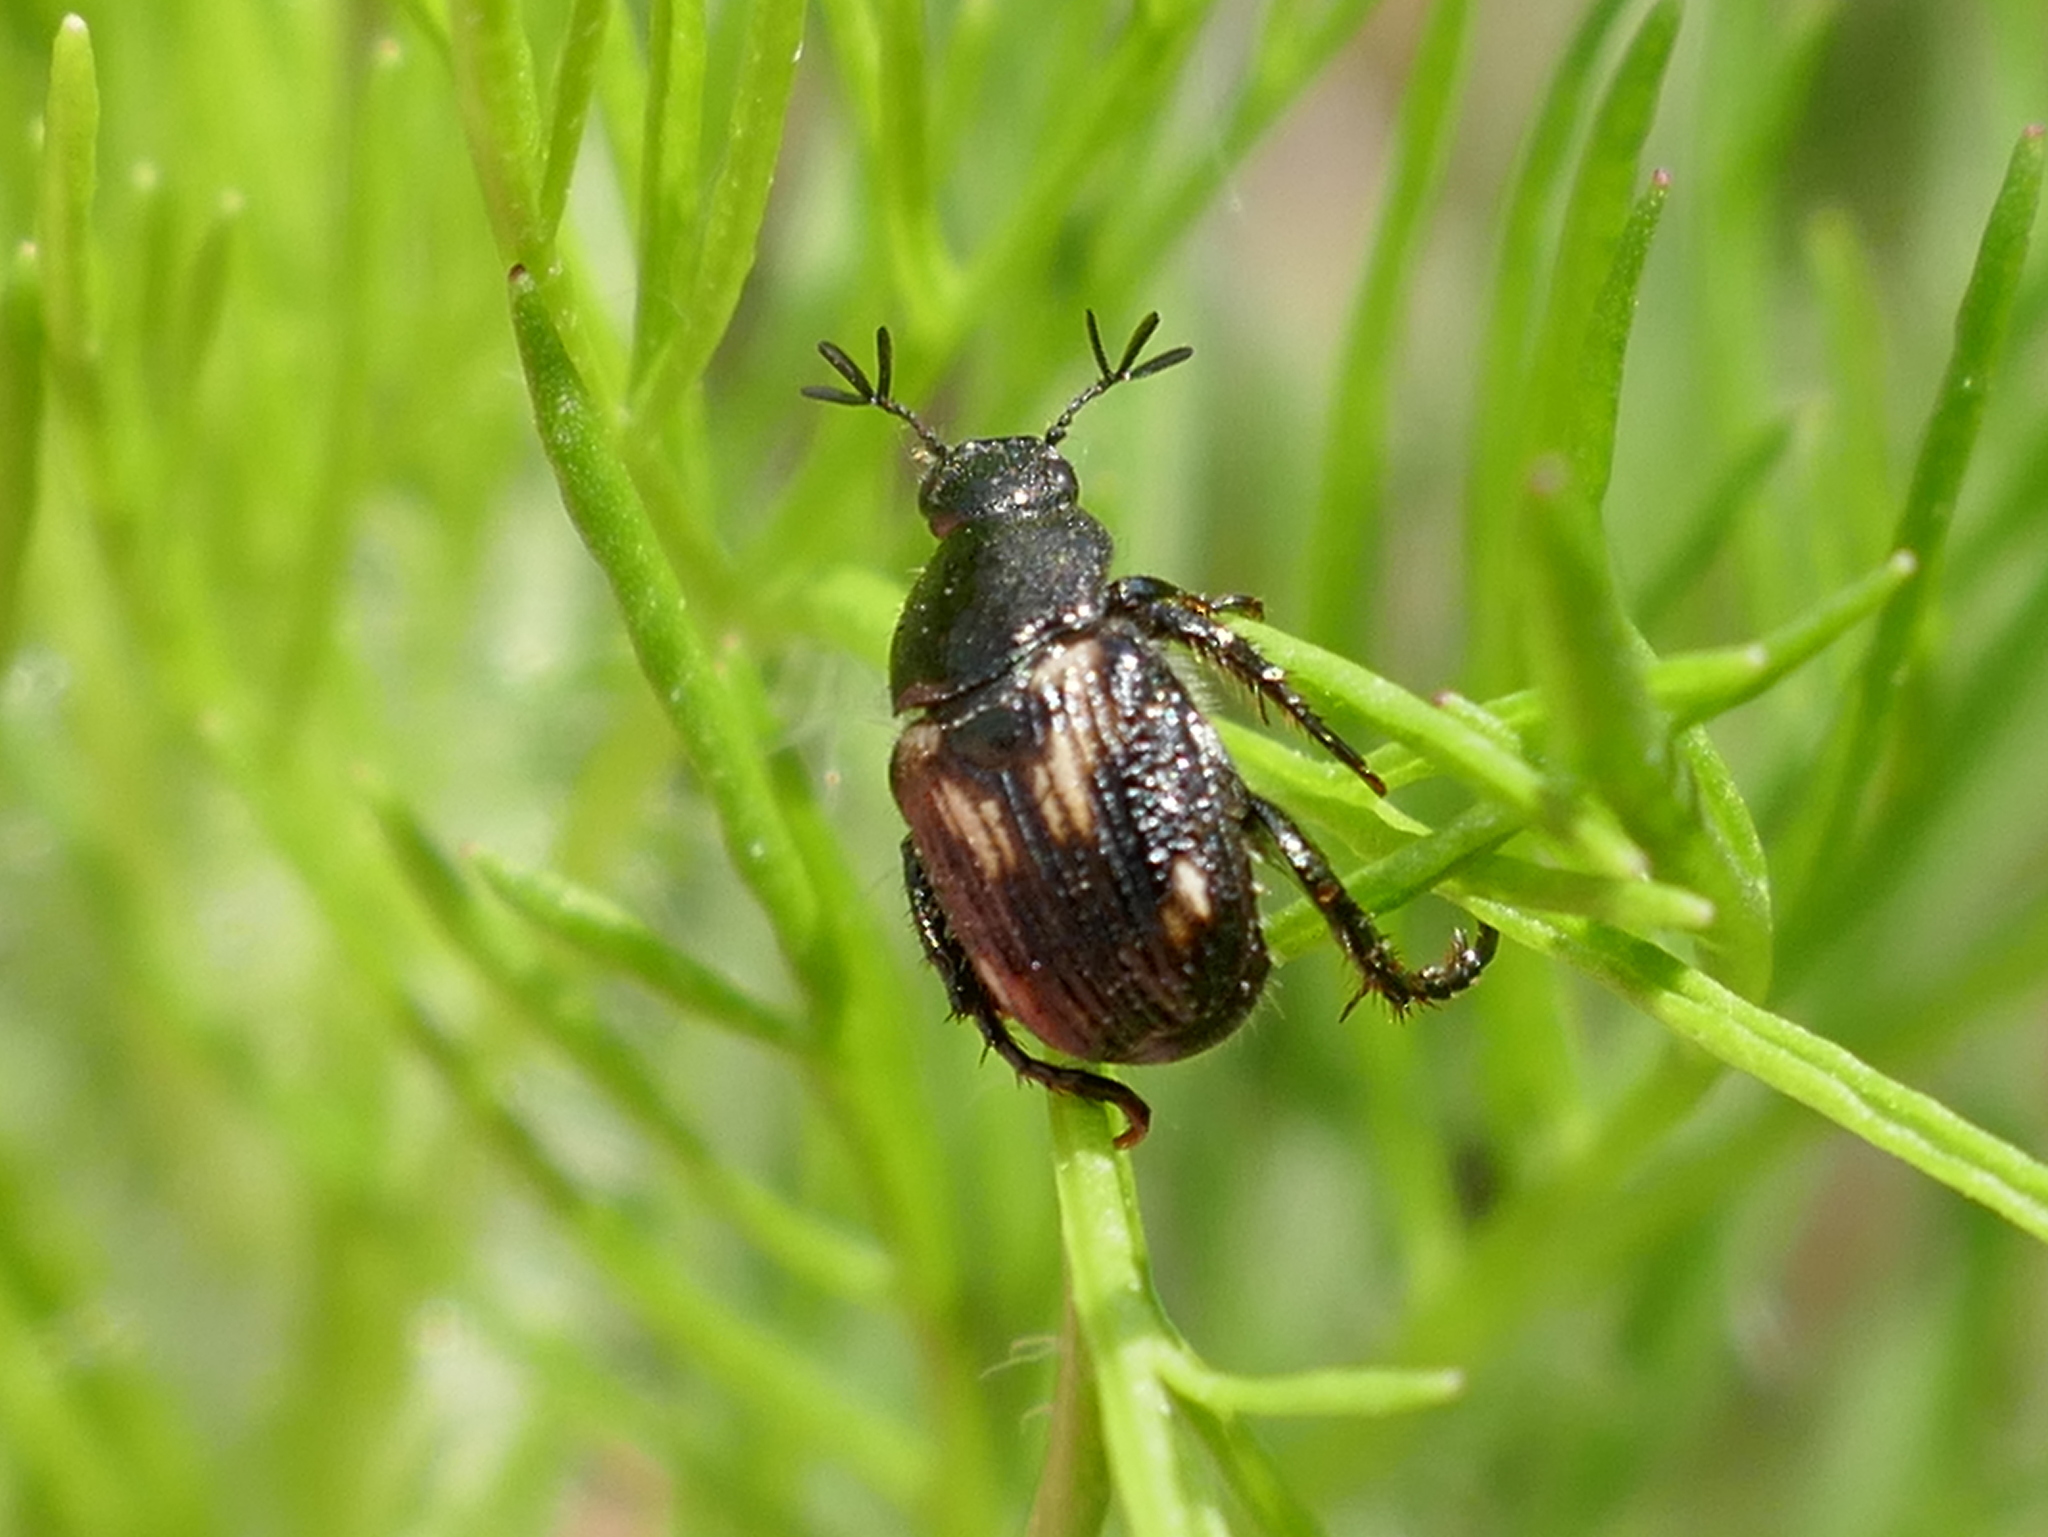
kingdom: Animalia
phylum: Arthropoda
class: Insecta
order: Coleoptera
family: Scarabaeidae
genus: Strigoderma
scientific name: Strigoderma pygmaea
